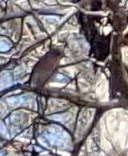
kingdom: Animalia
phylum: Chordata
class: Aves
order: Passeriformes
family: Turdidae
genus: Sialia
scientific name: Sialia sialis
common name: Eastern bluebird
